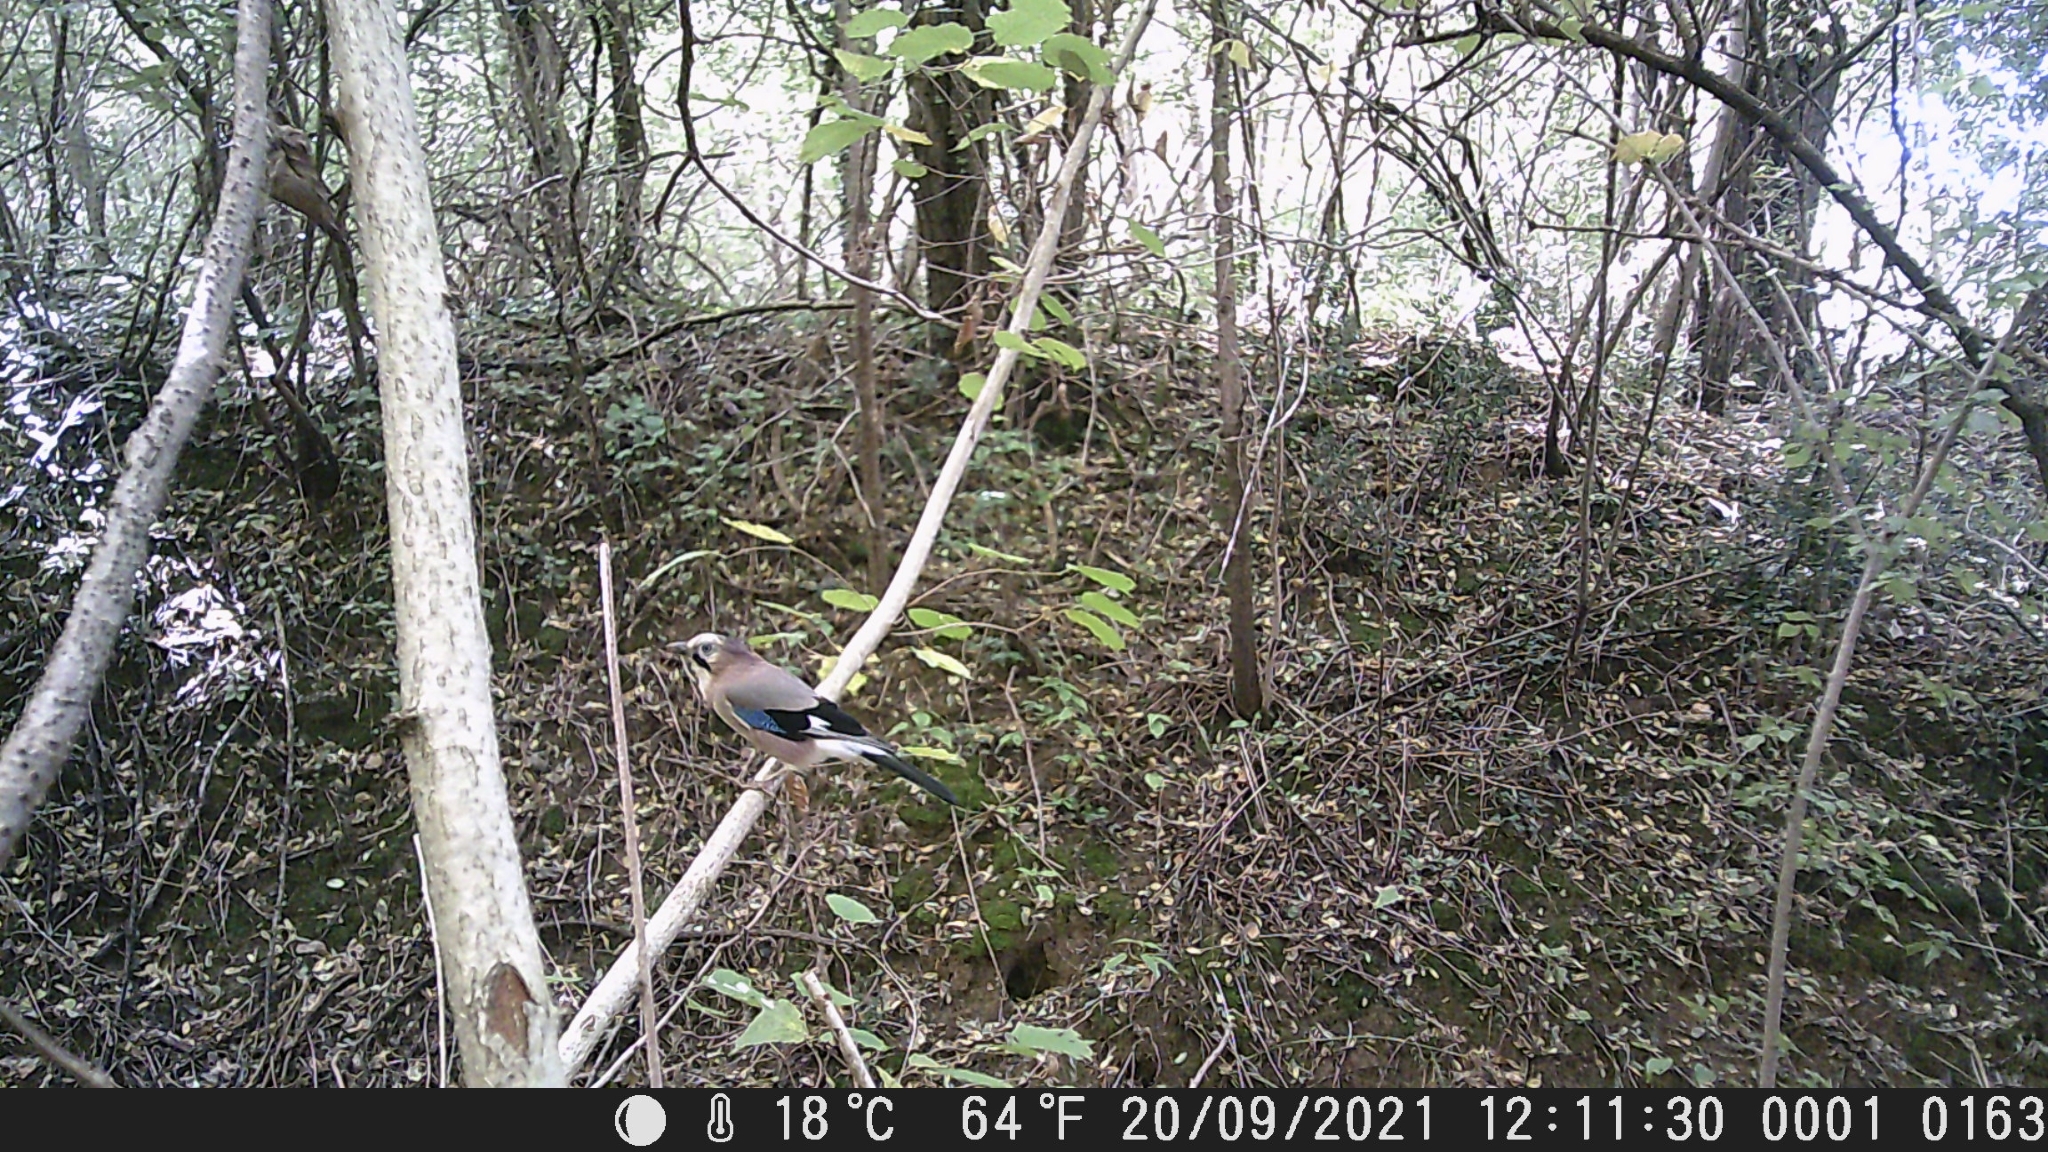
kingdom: Animalia
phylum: Chordata
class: Aves
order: Passeriformes
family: Corvidae
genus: Garrulus
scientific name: Garrulus glandarius
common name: Eurasian jay
